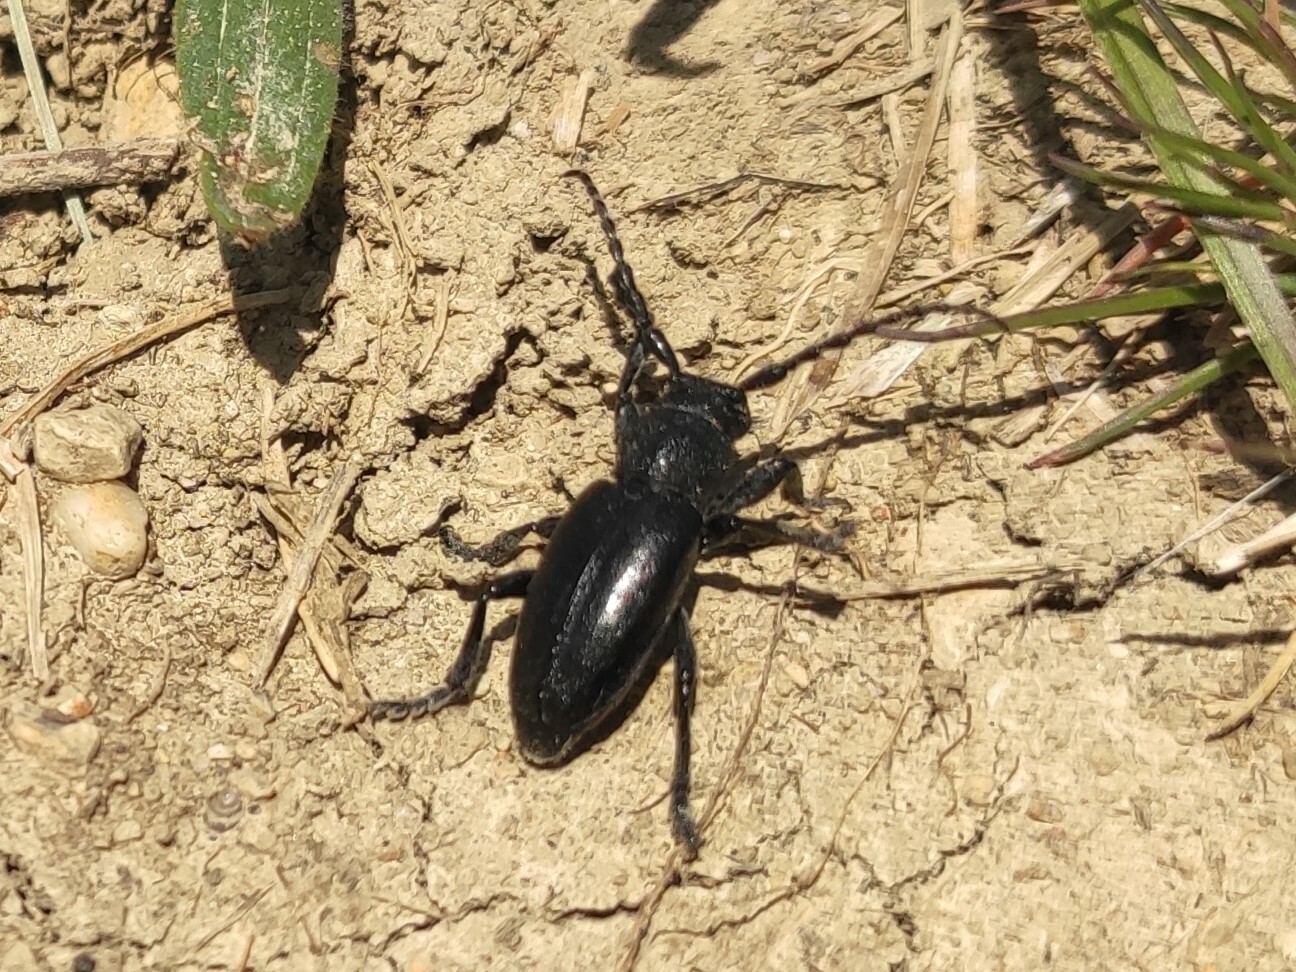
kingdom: Animalia
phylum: Arthropoda
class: Insecta
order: Coleoptera
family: Cerambycidae
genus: Iberodorcadion
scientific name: Iberodorcadion fuliginator
